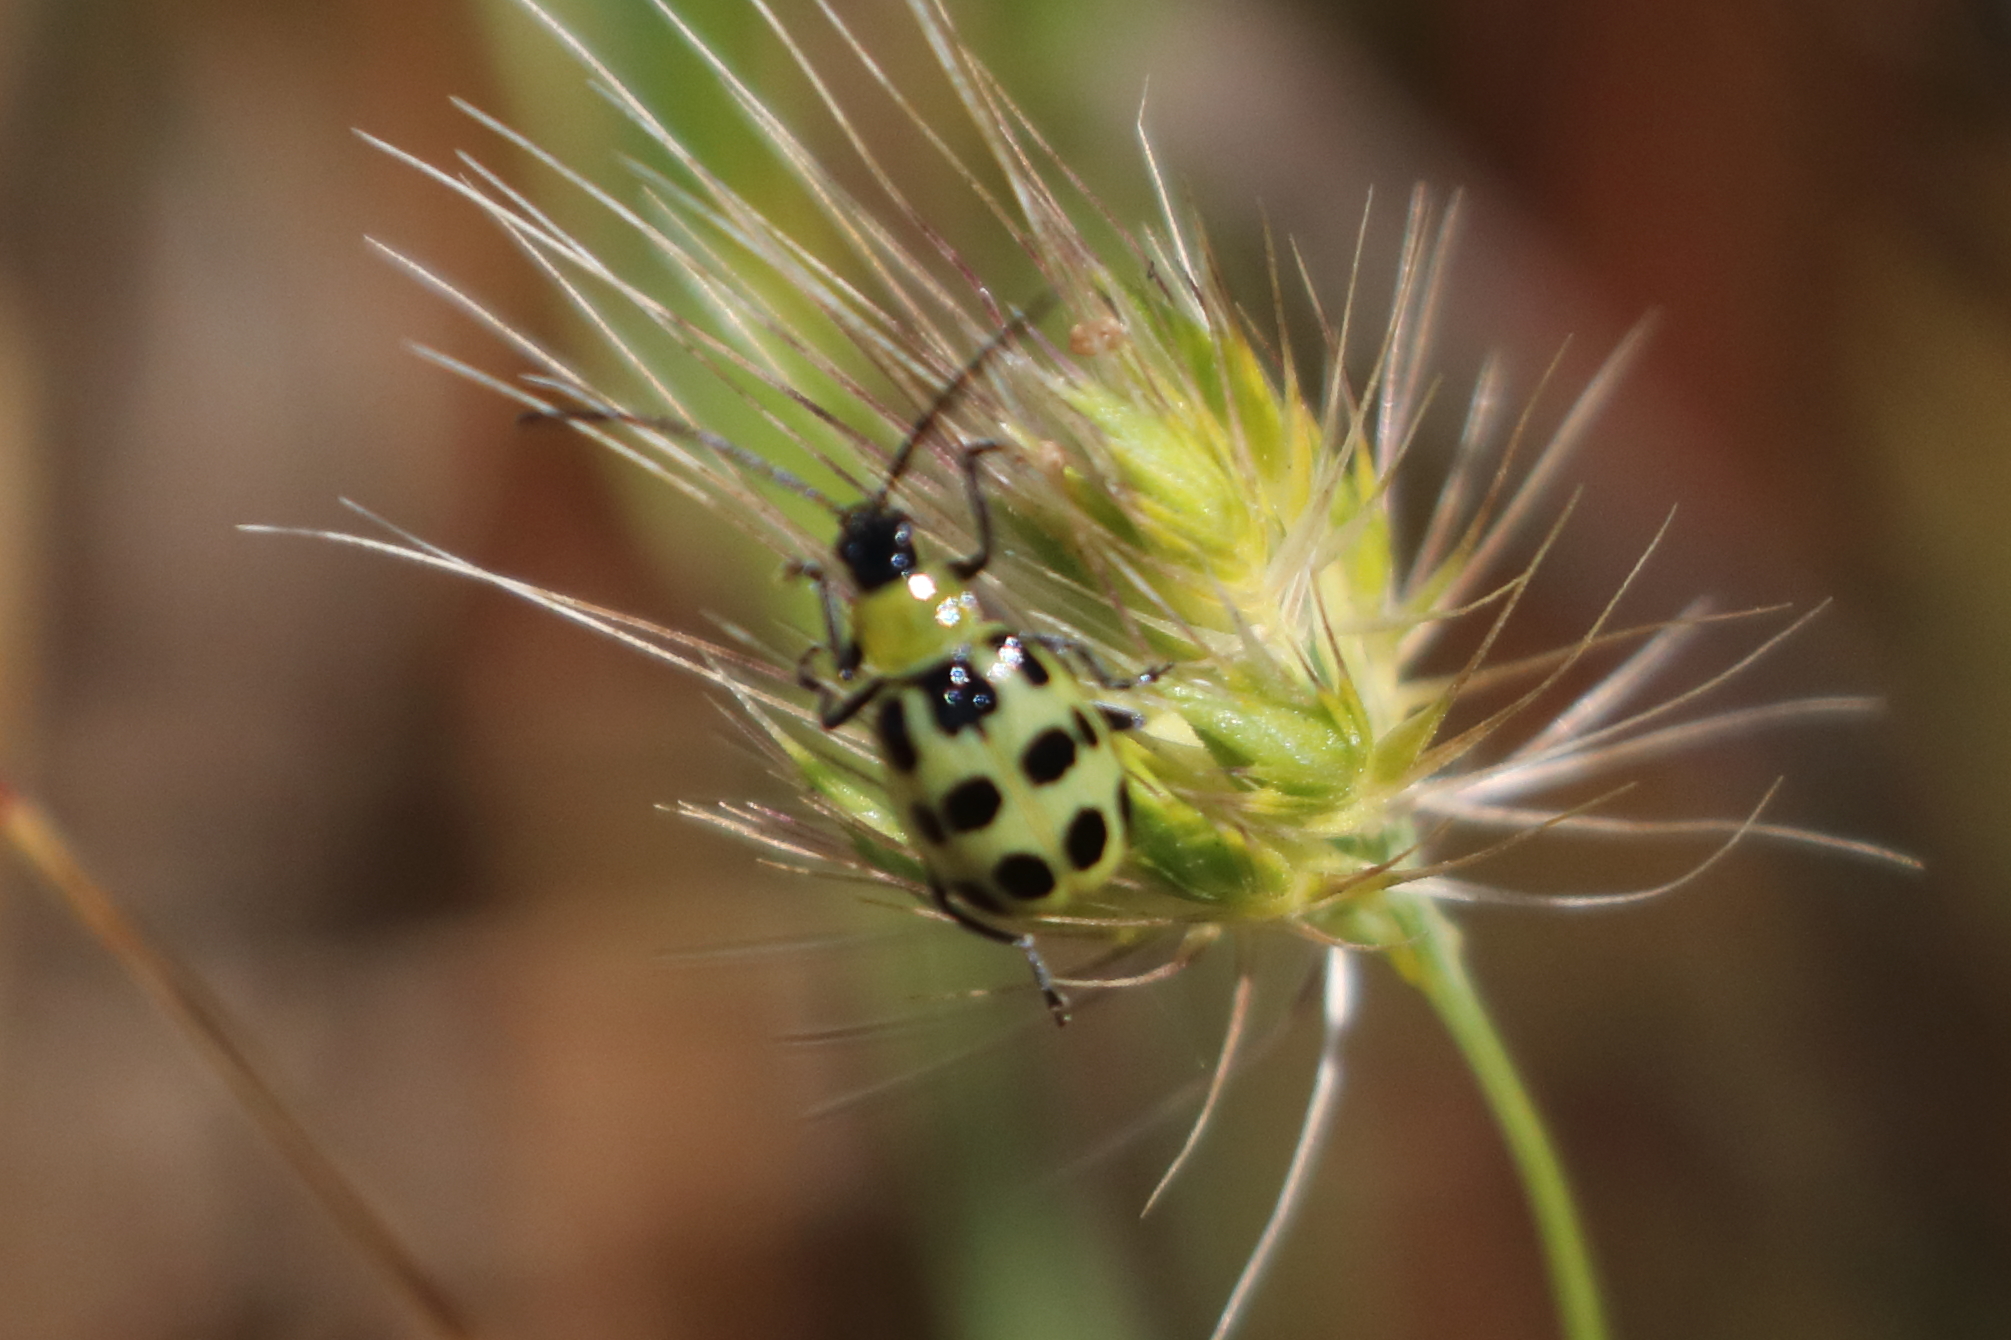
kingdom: Animalia
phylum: Arthropoda
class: Insecta
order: Coleoptera
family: Chrysomelidae
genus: Diabrotica
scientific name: Diabrotica undecimpunctata
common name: Spotted cucumber beetle
